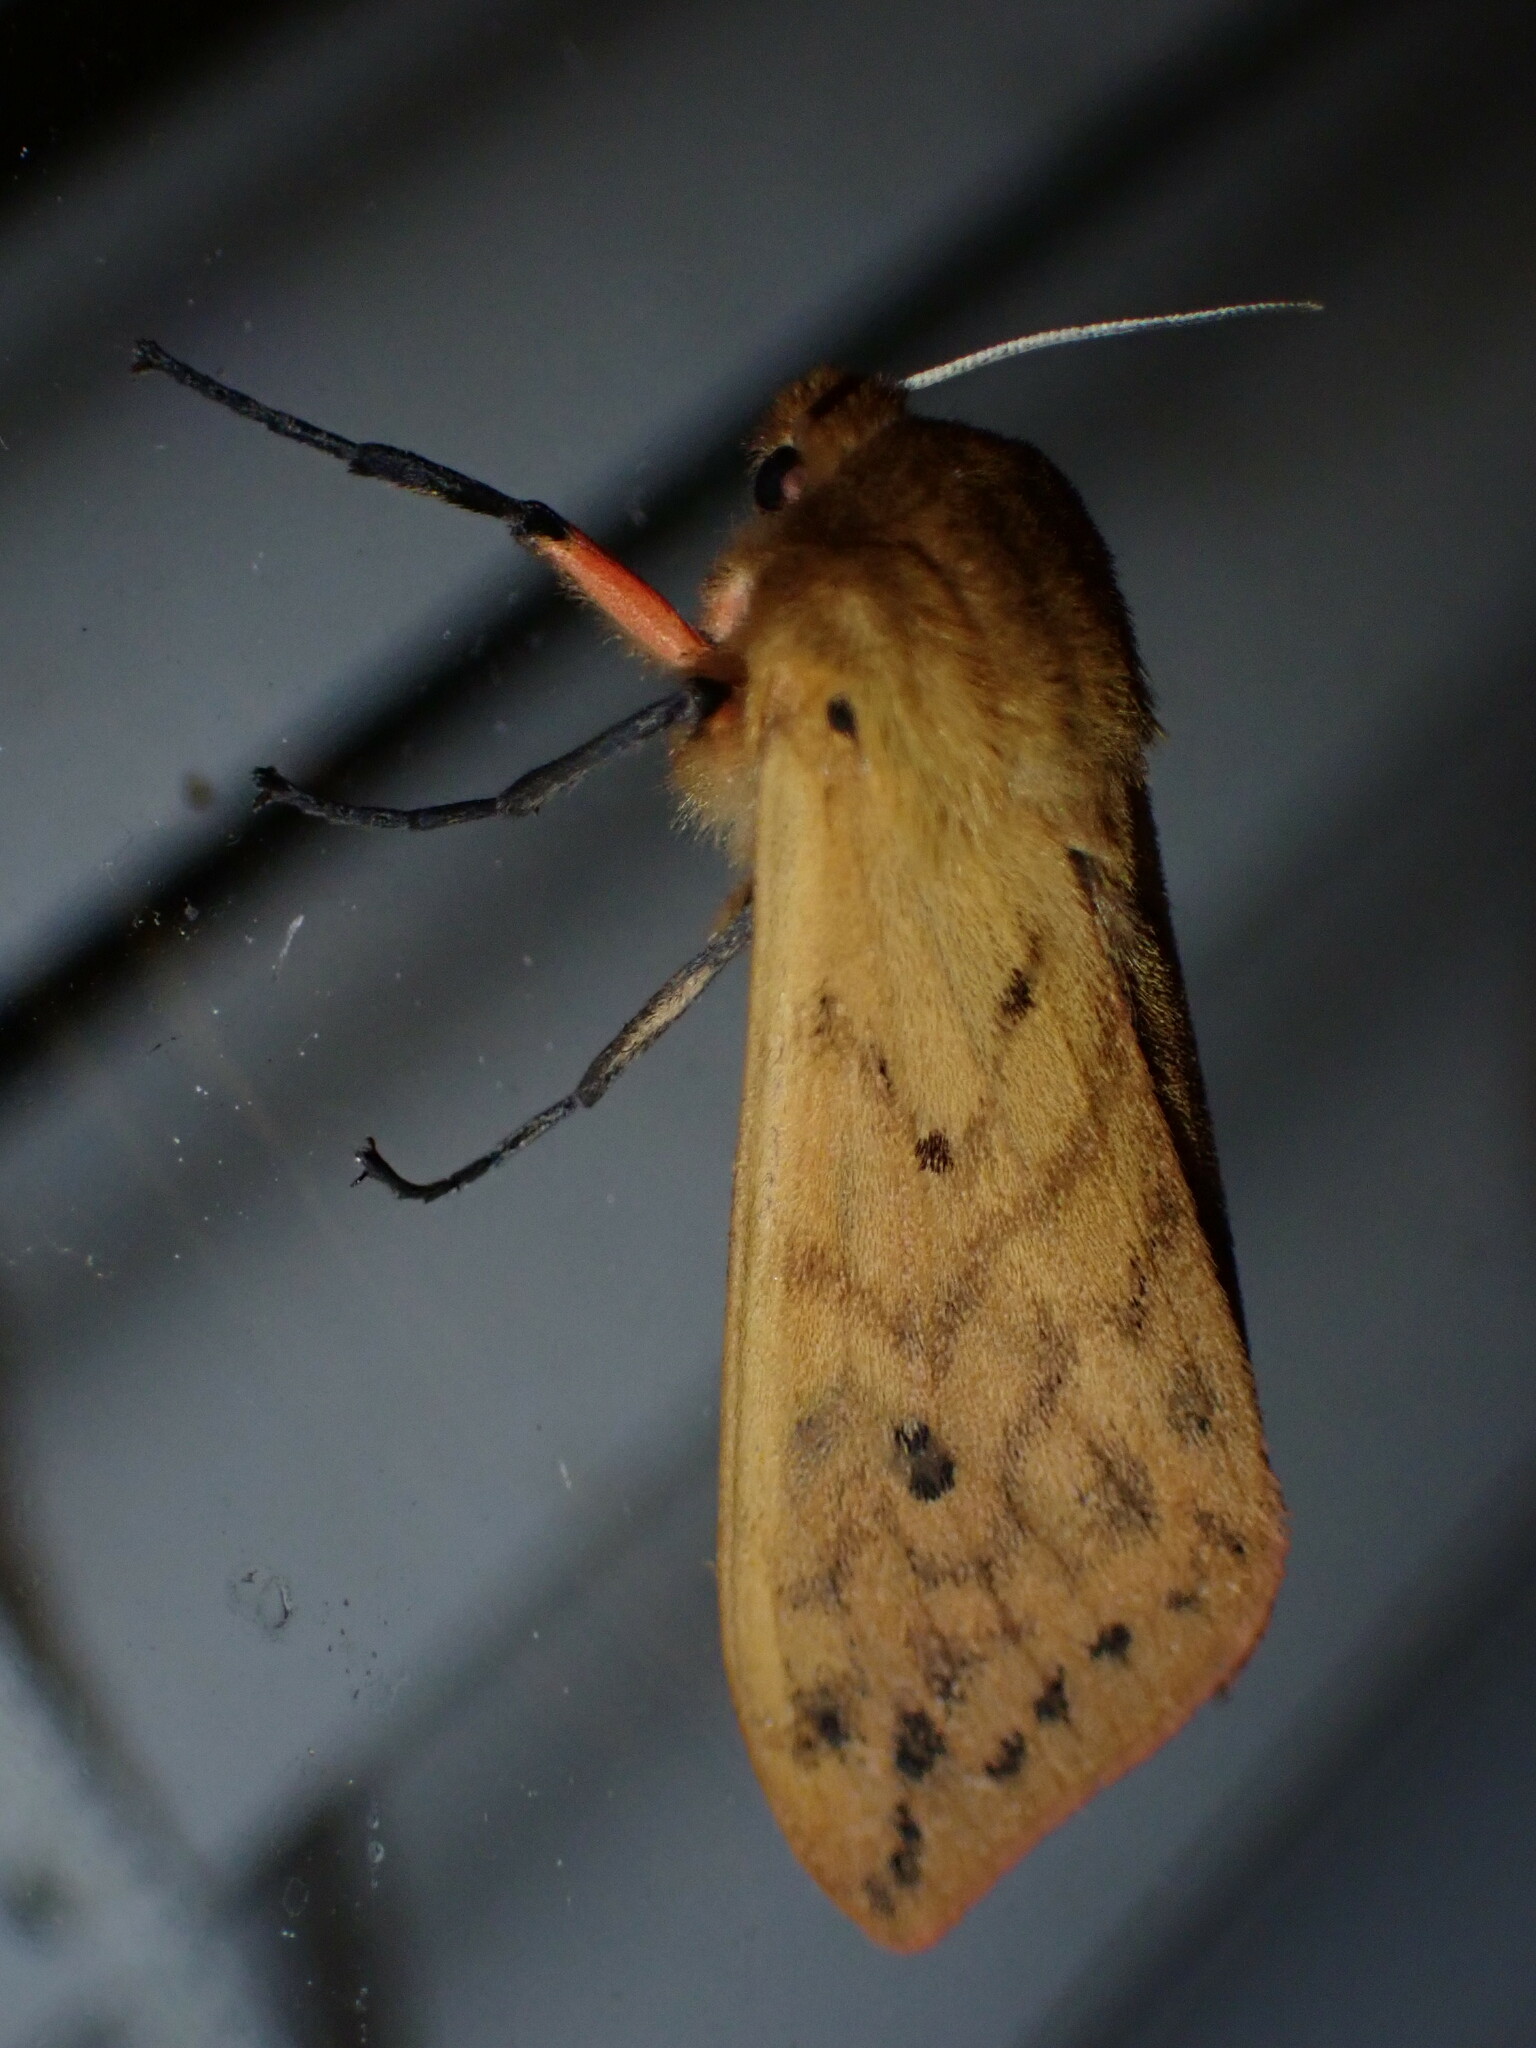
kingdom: Animalia
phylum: Arthropoda
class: Insecta
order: Lepidoptera
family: Erebidae
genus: Pyrrharctia
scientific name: Pyrrharctia isabella
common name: Isabella tiger moth
